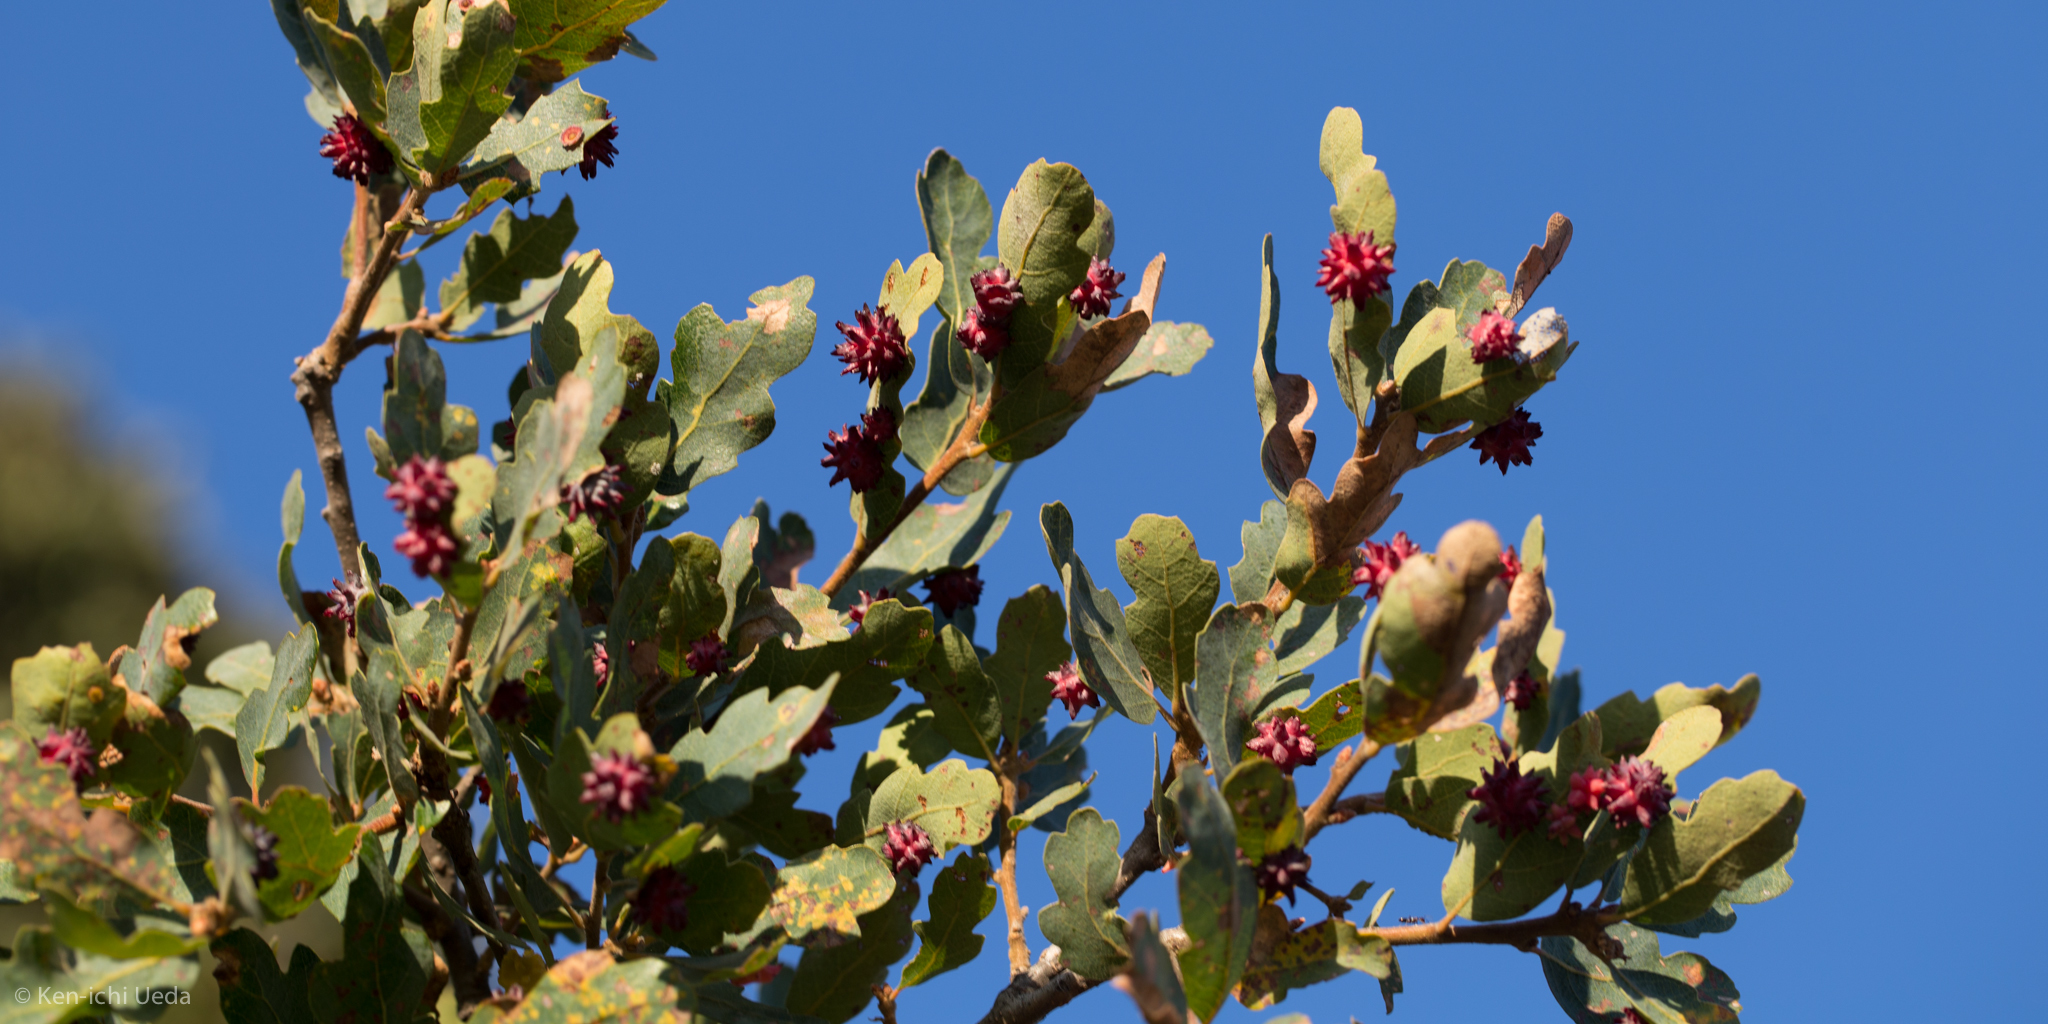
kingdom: Animalia
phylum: Arthropoda
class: Insecta
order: Hymenoptera
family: Cynipidae
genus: Cynips
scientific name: Cynips
